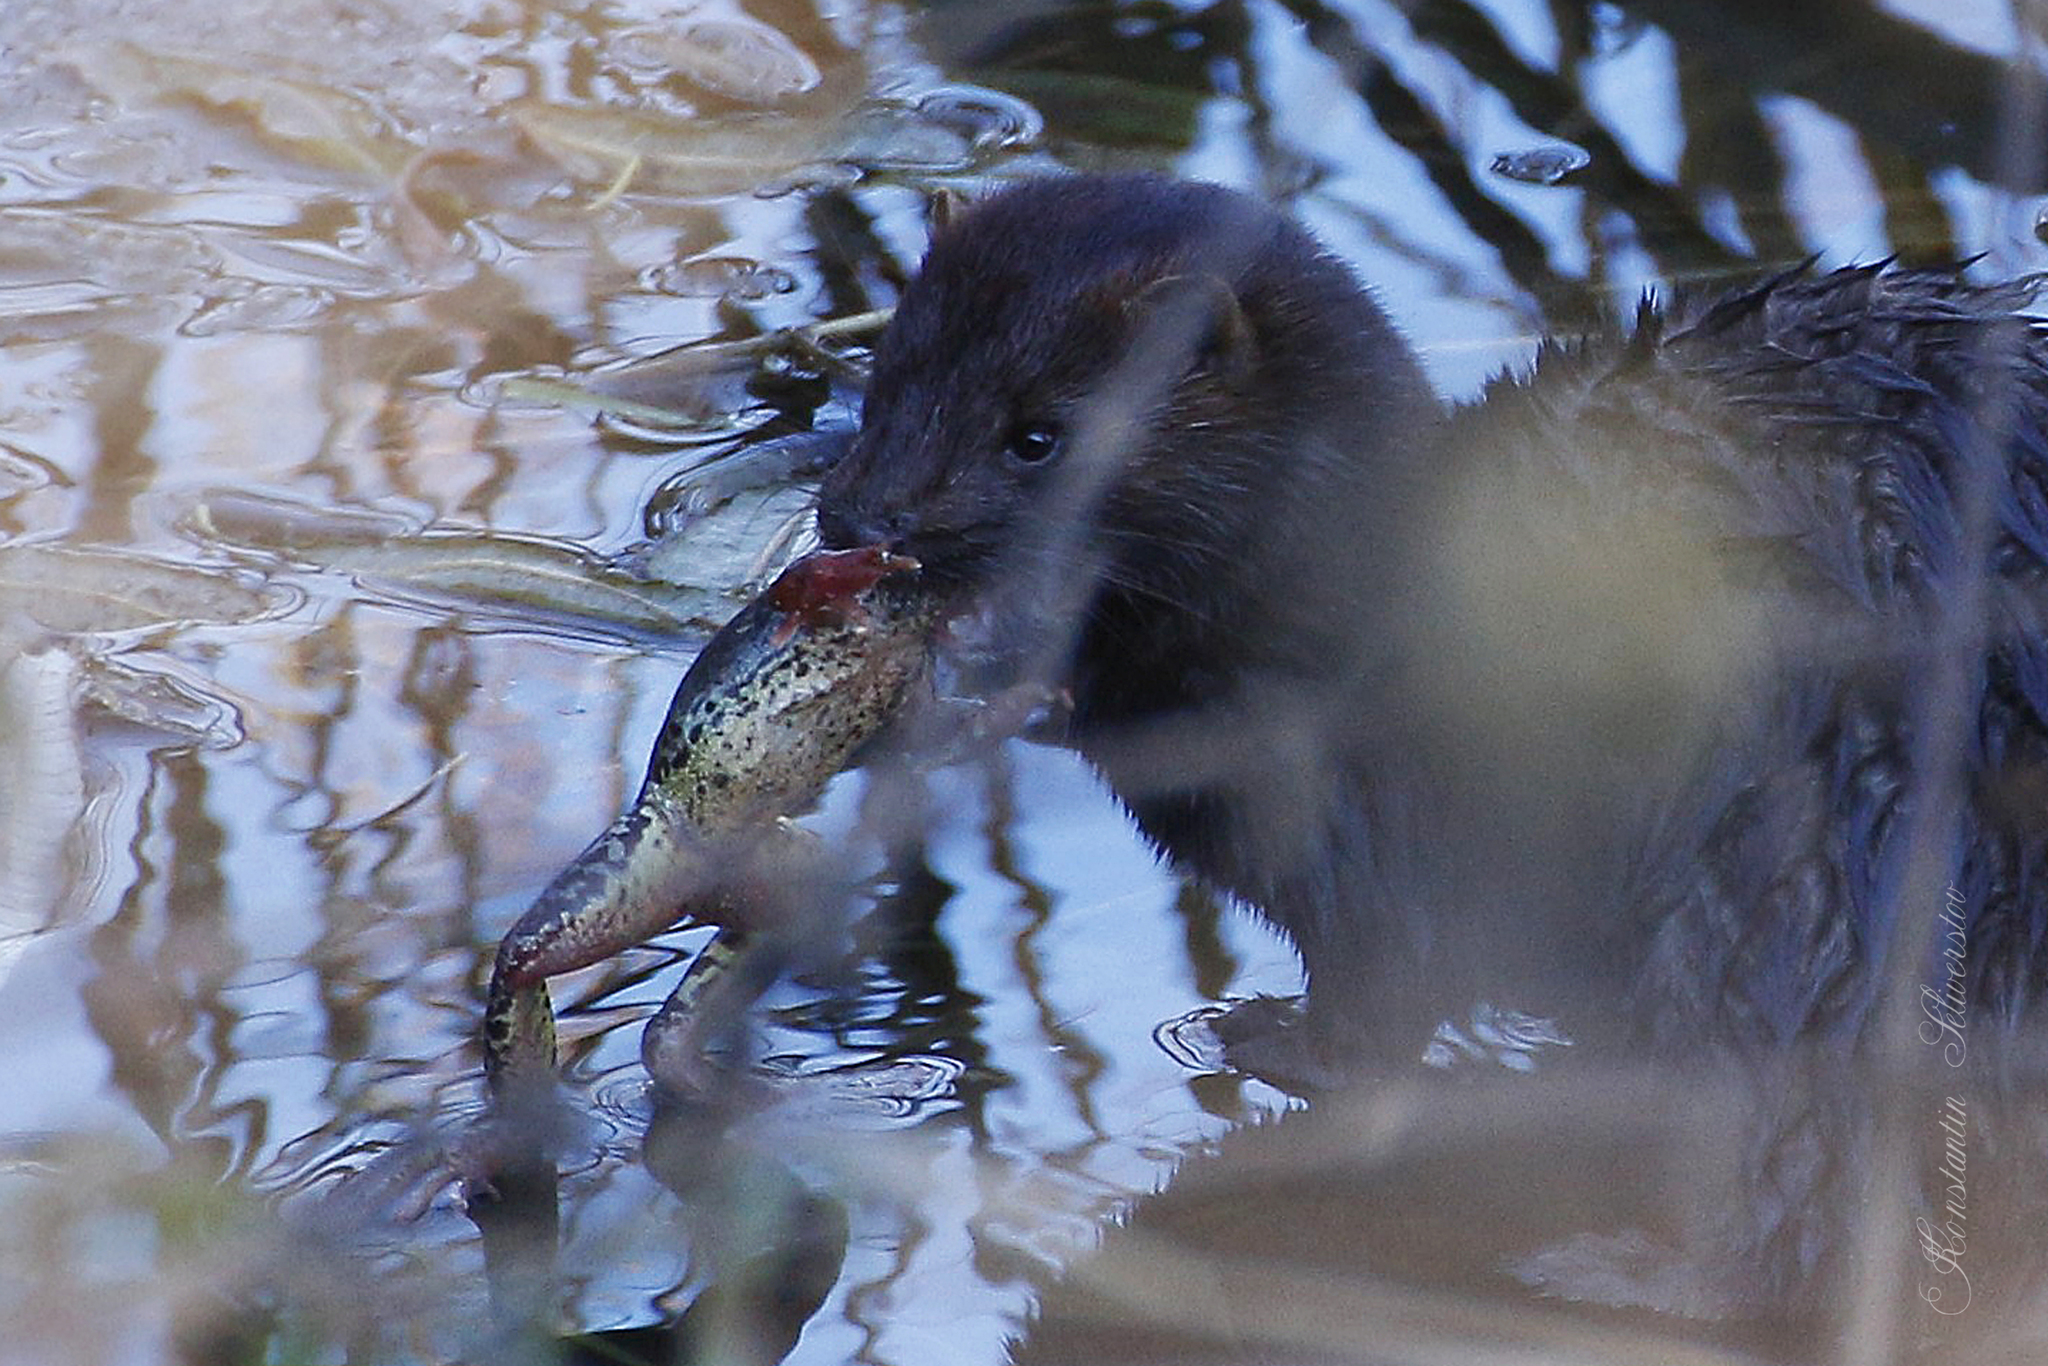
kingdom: Animalia
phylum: Chordata
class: Mammalia
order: Carnivora
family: Mustelidae
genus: Mustela
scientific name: Mustela
